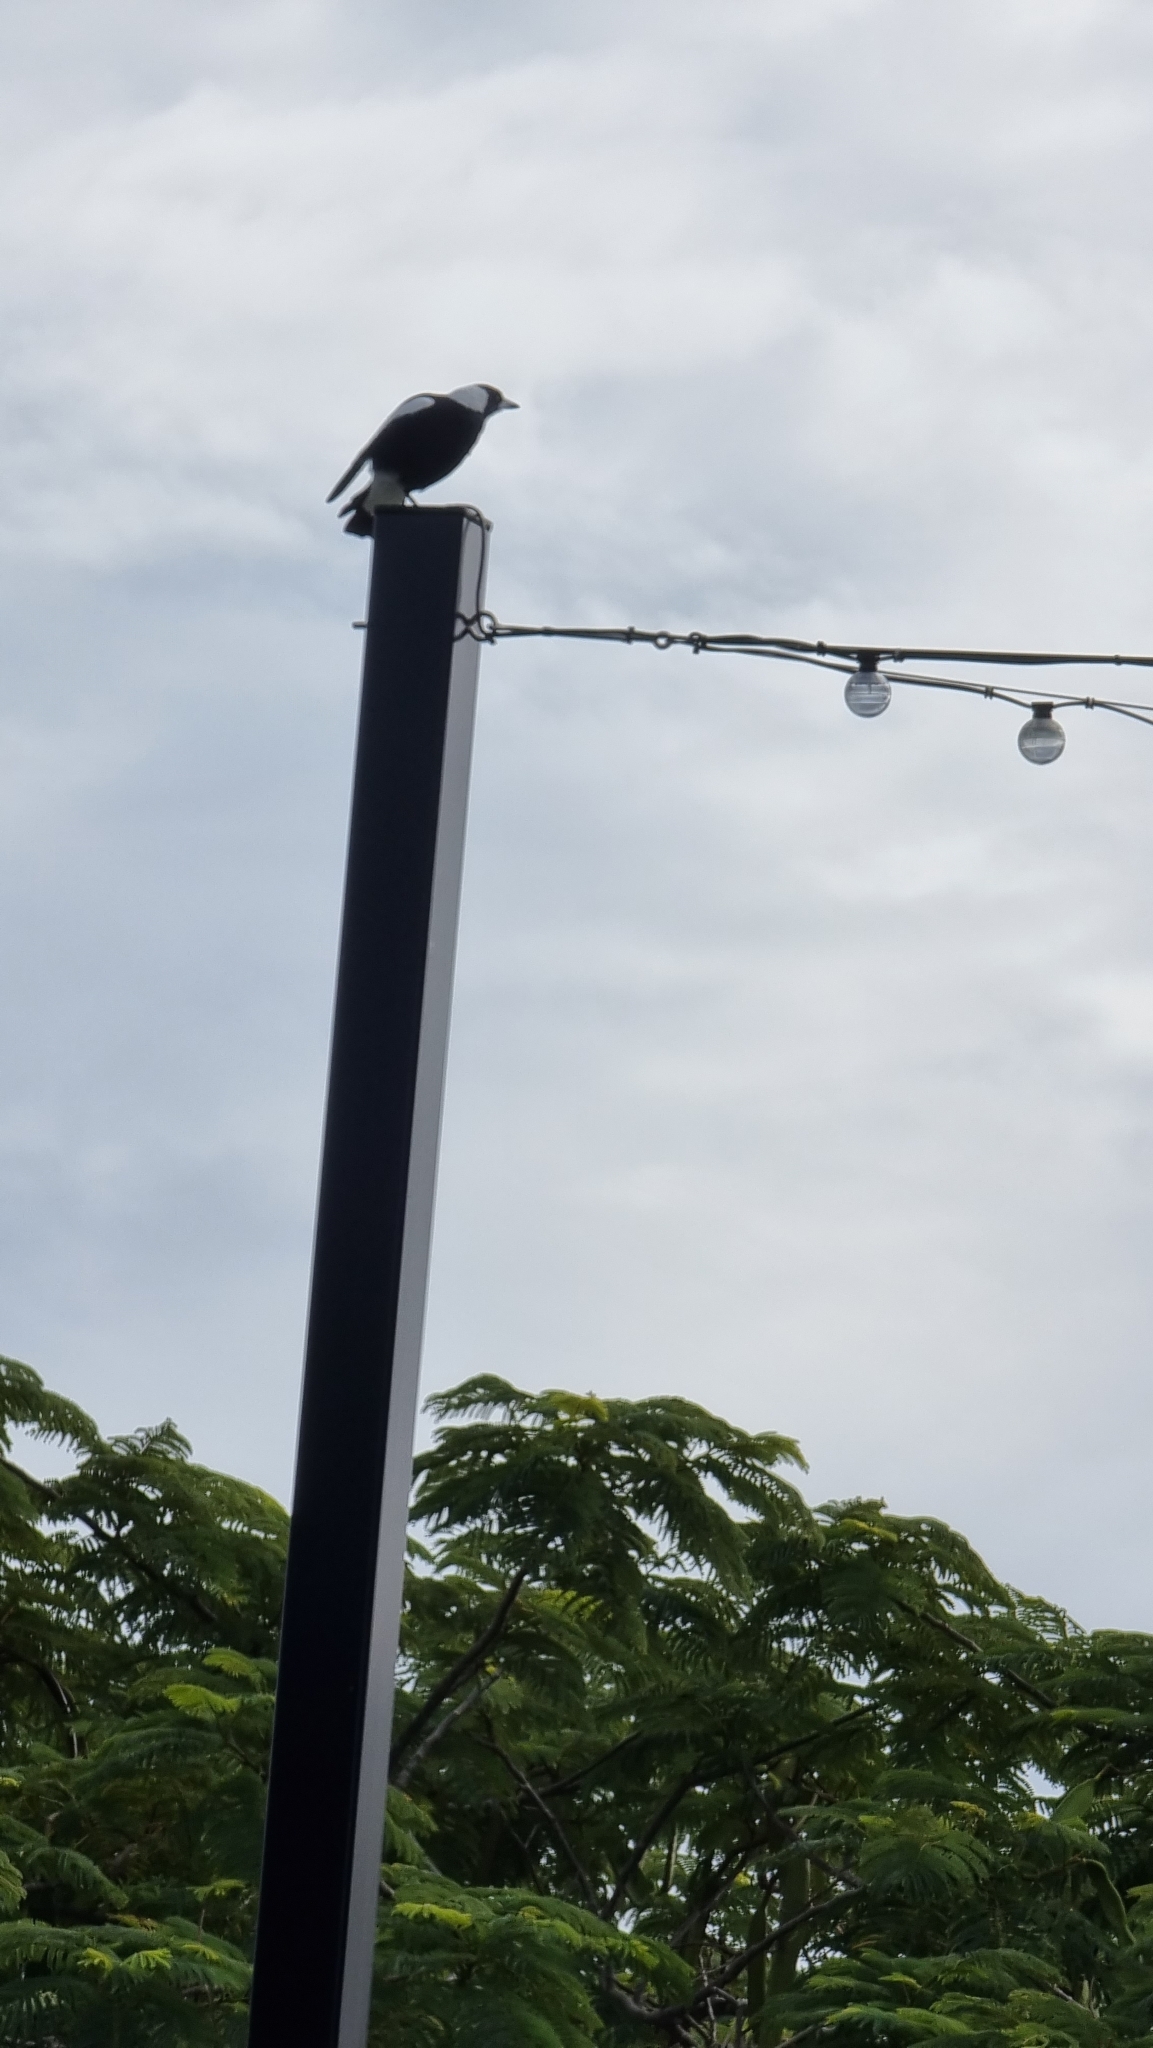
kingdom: Animalia
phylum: Chordata
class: Aves
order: Passeriformes
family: Cracticidae
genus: Gymnorhina
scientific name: Gymnorhina tibicen
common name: Australian magpie
